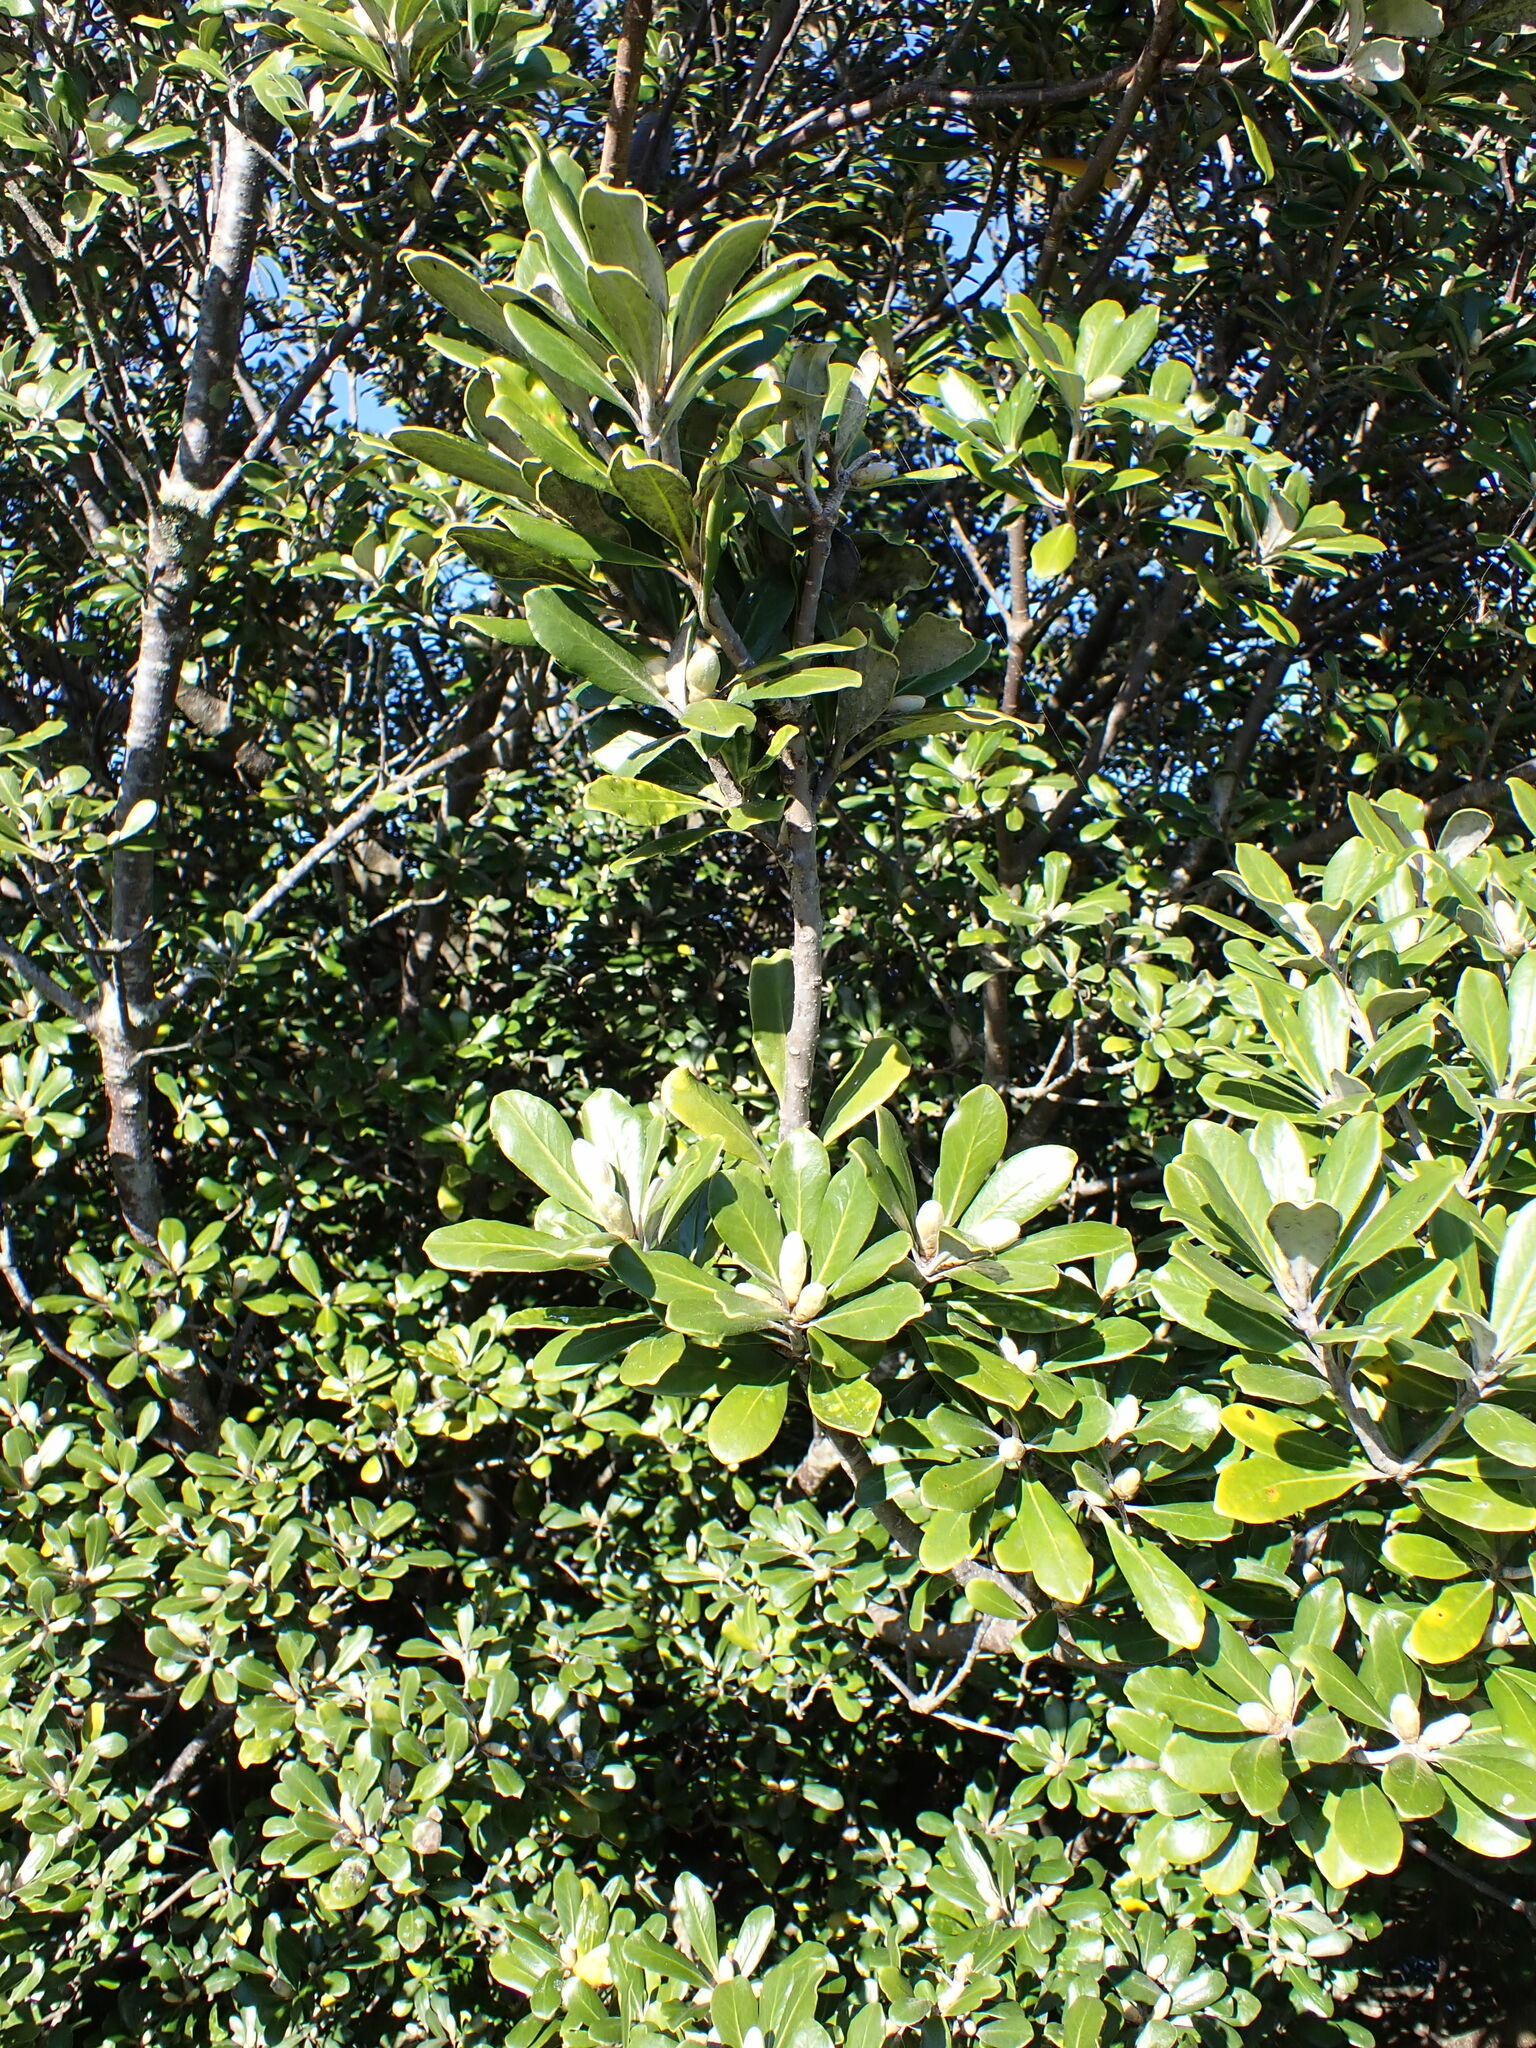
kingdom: Plantae
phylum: Tracheophyta
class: Magnoliopsida
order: Apiales
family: Pittosporaceae
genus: Pittosporum
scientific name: Pittosporum crassifolium
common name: Karo
